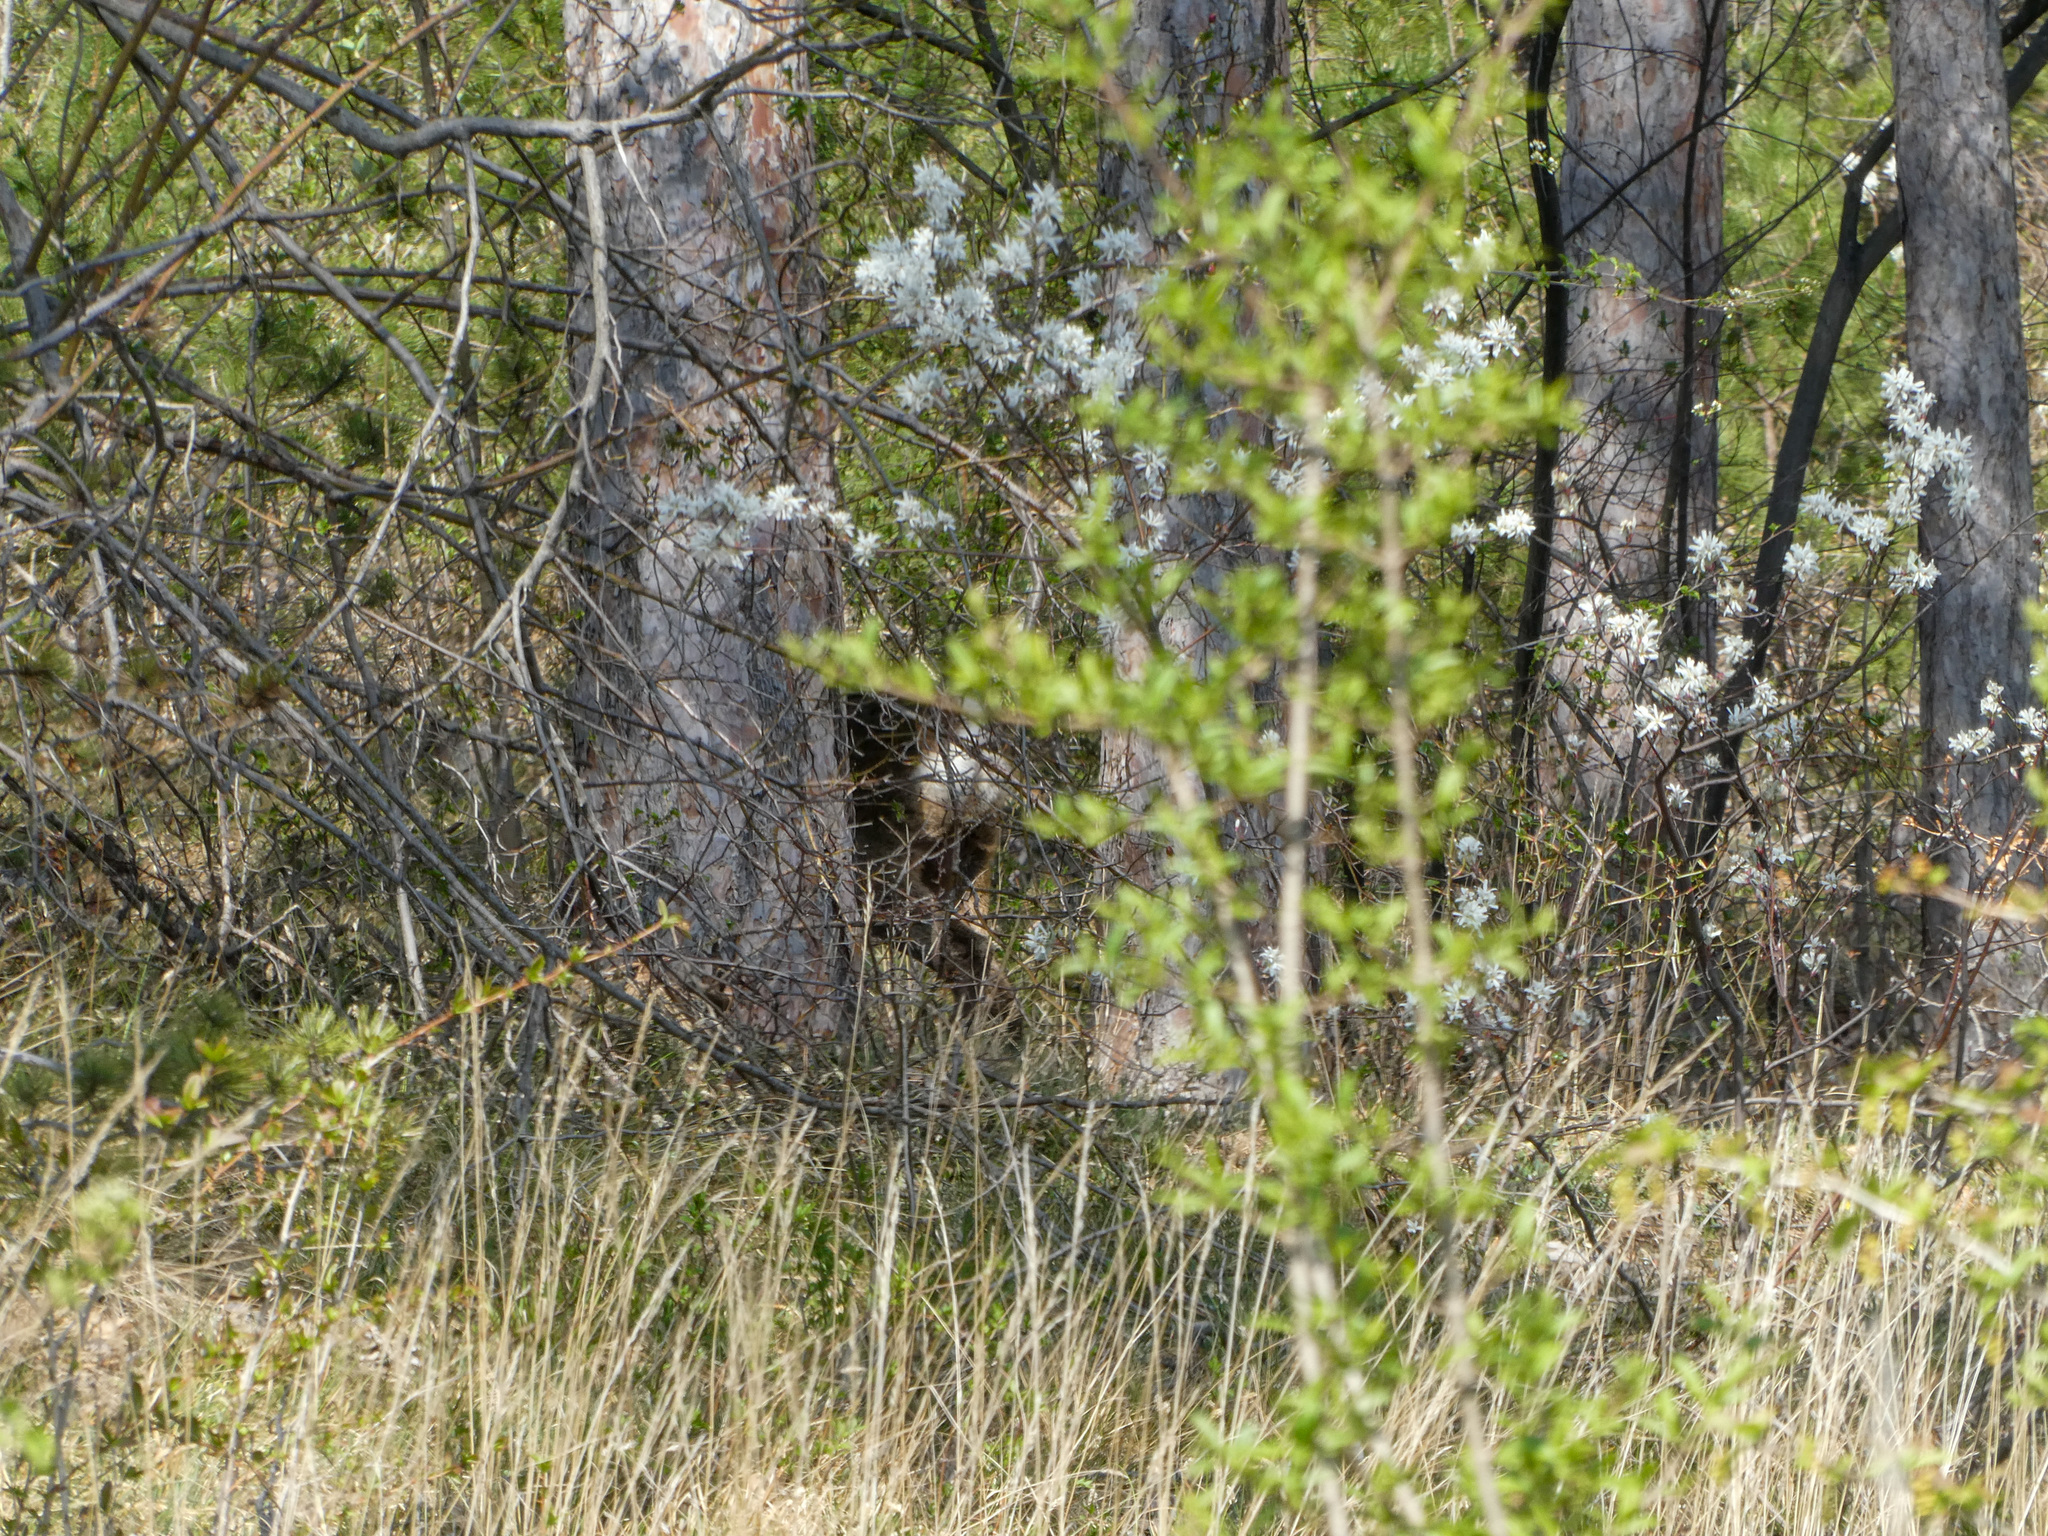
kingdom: Animalia
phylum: Chordata
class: Mammalia
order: Artiodactyla
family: Cervidae
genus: Capreolus
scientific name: Capreolus capreolus
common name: Western roe deer
